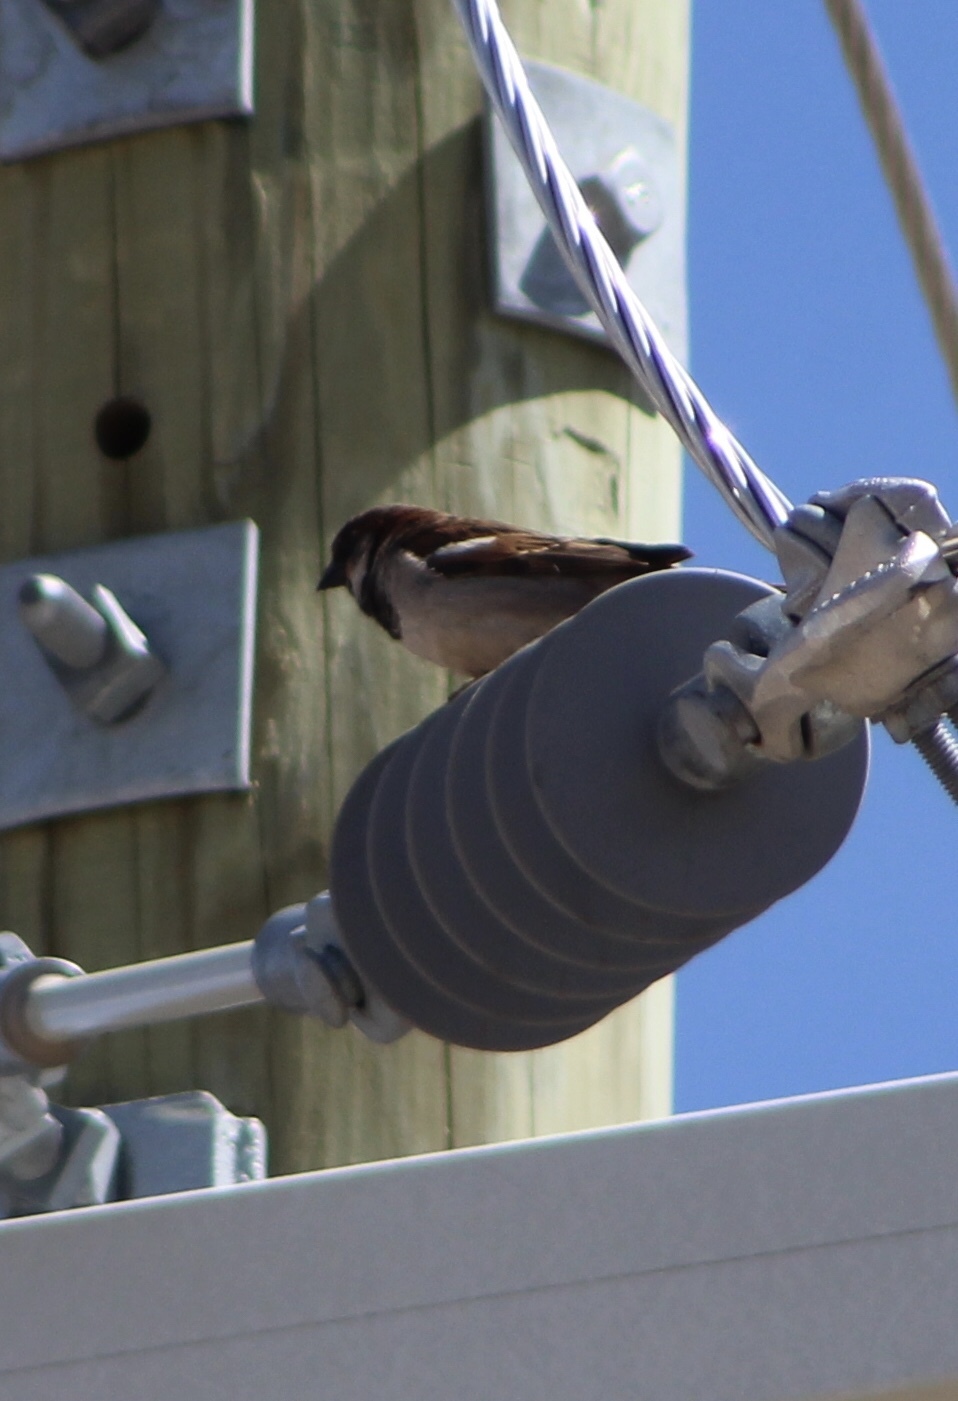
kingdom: Animalia
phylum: Chordata
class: Aves
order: Passeriformes
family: Passeridae
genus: Passer
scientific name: Passer domesticus
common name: House sparrow
